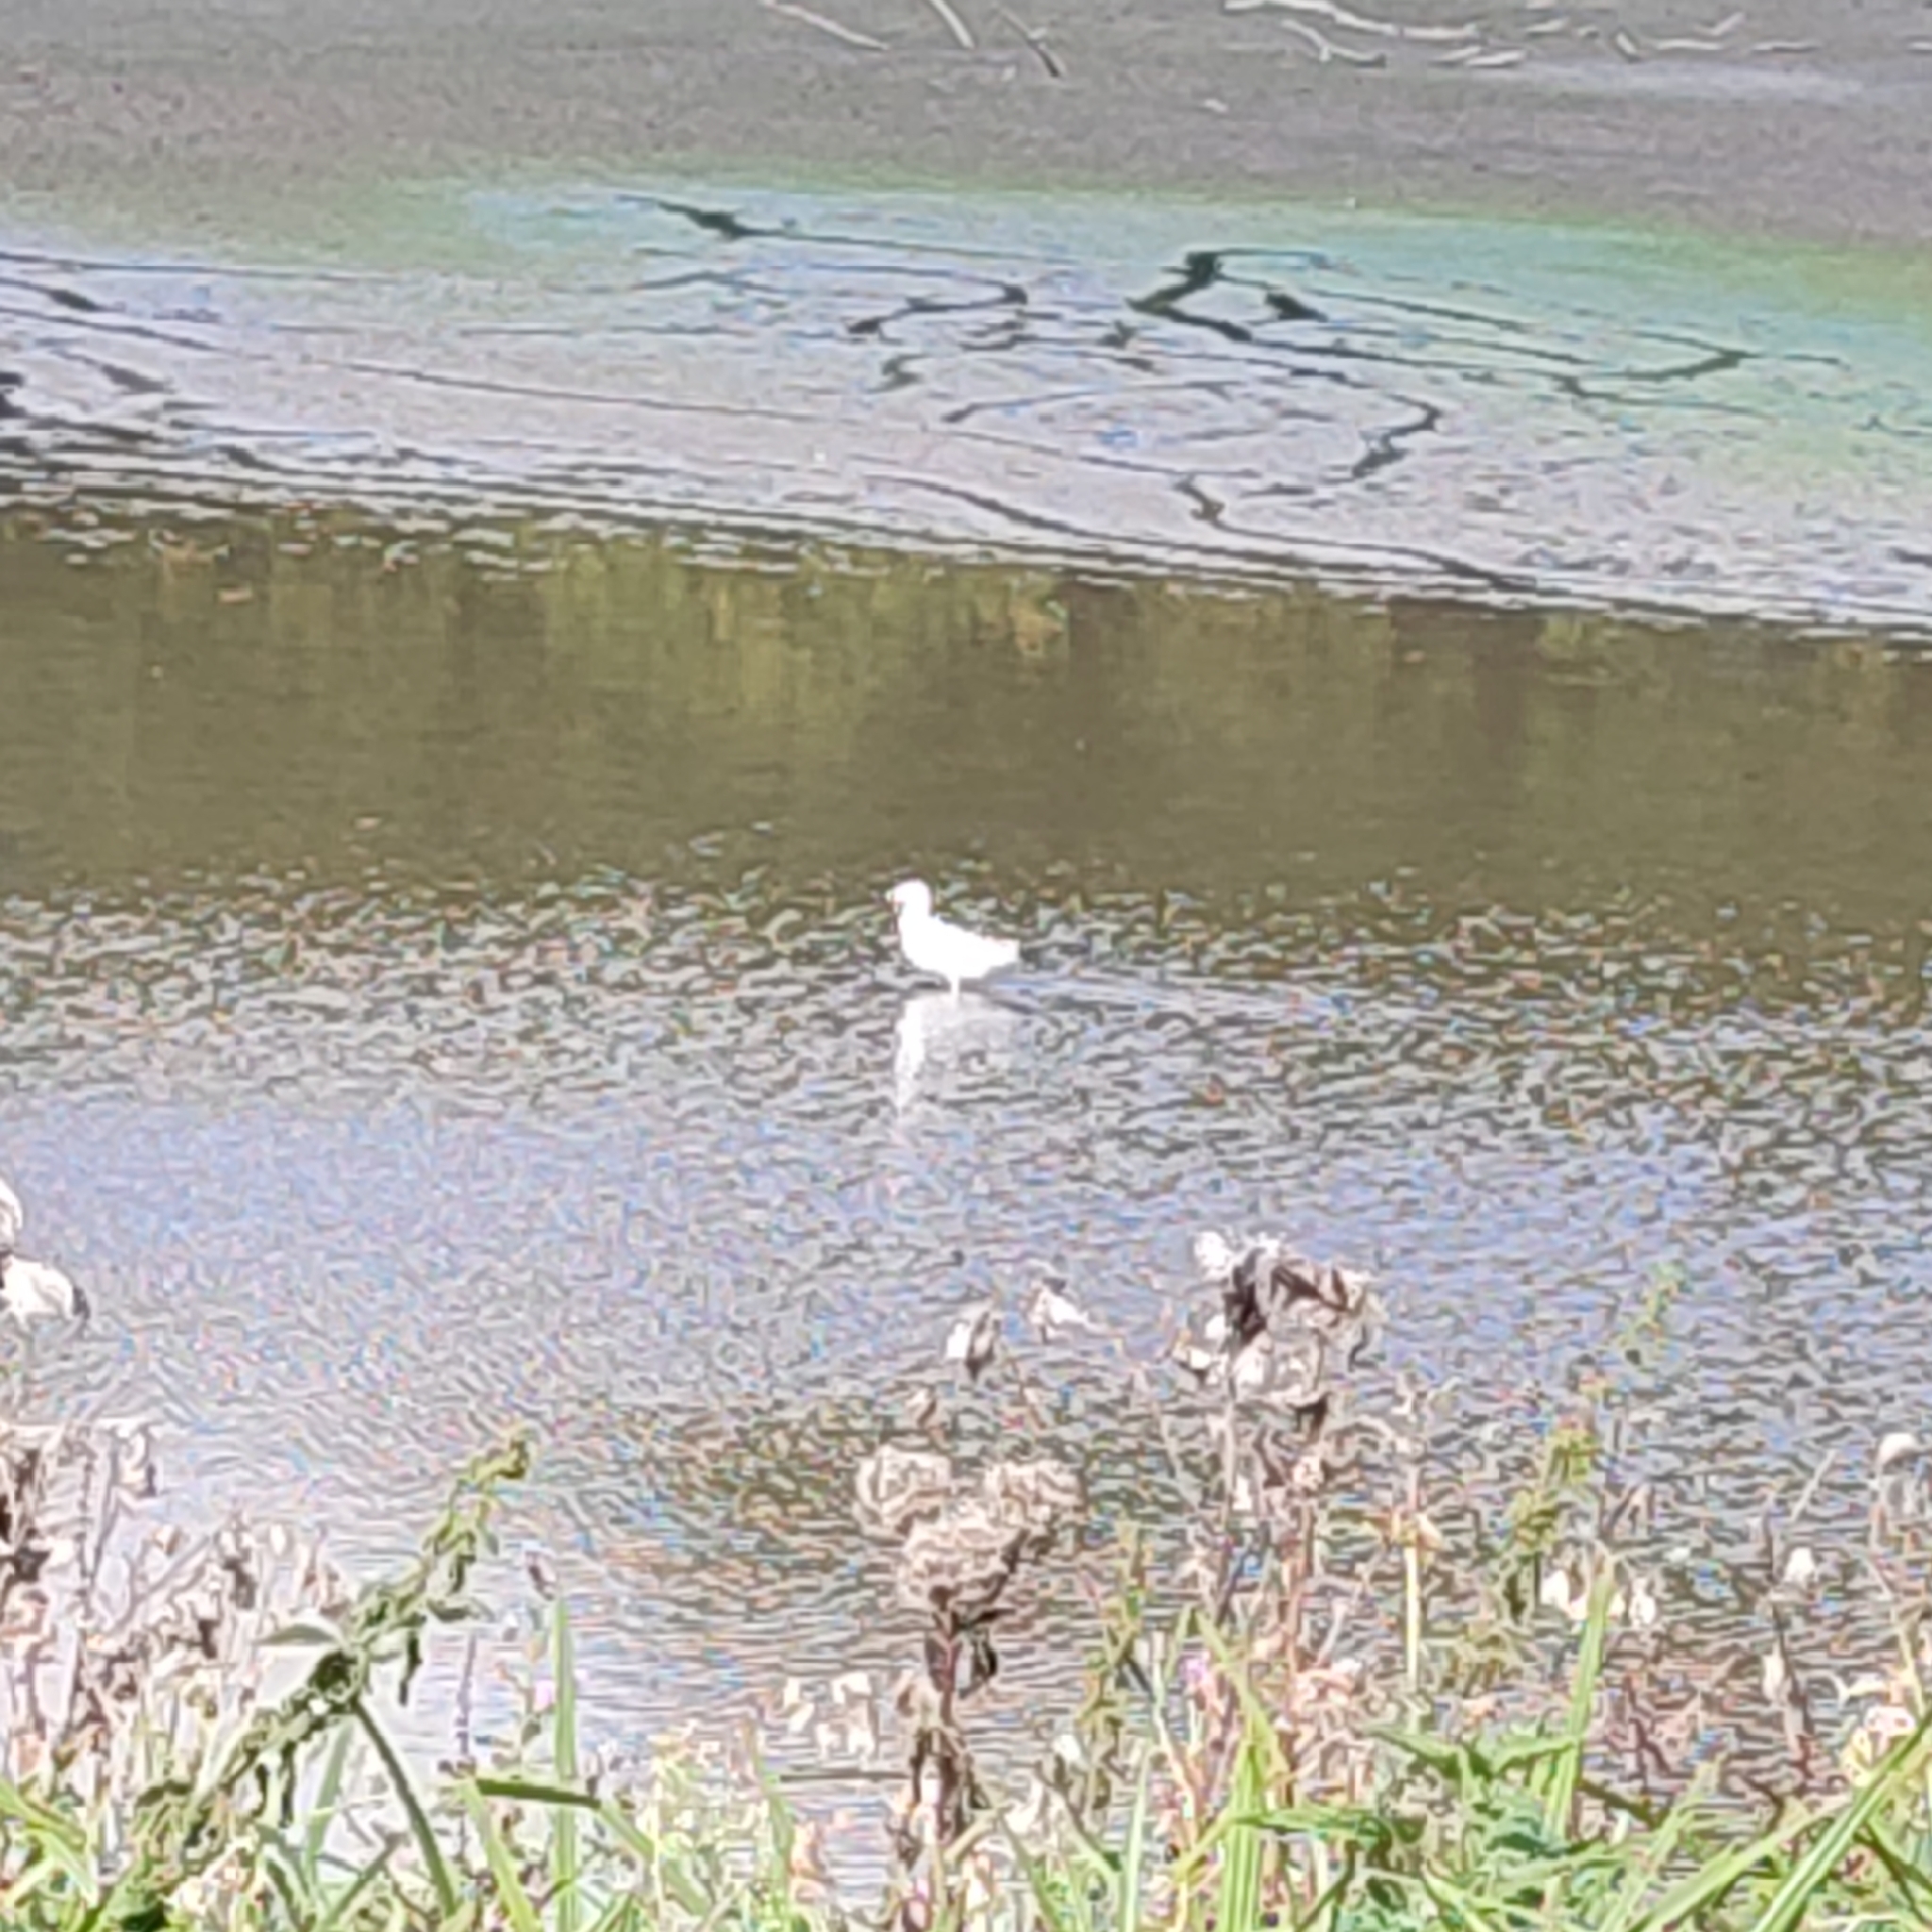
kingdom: Animalia
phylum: Chordata
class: Aves
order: Charadriiformes
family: Laridae
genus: Chroicocephalus
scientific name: Chroicocephalus ridibundus
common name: Black-headed gull
